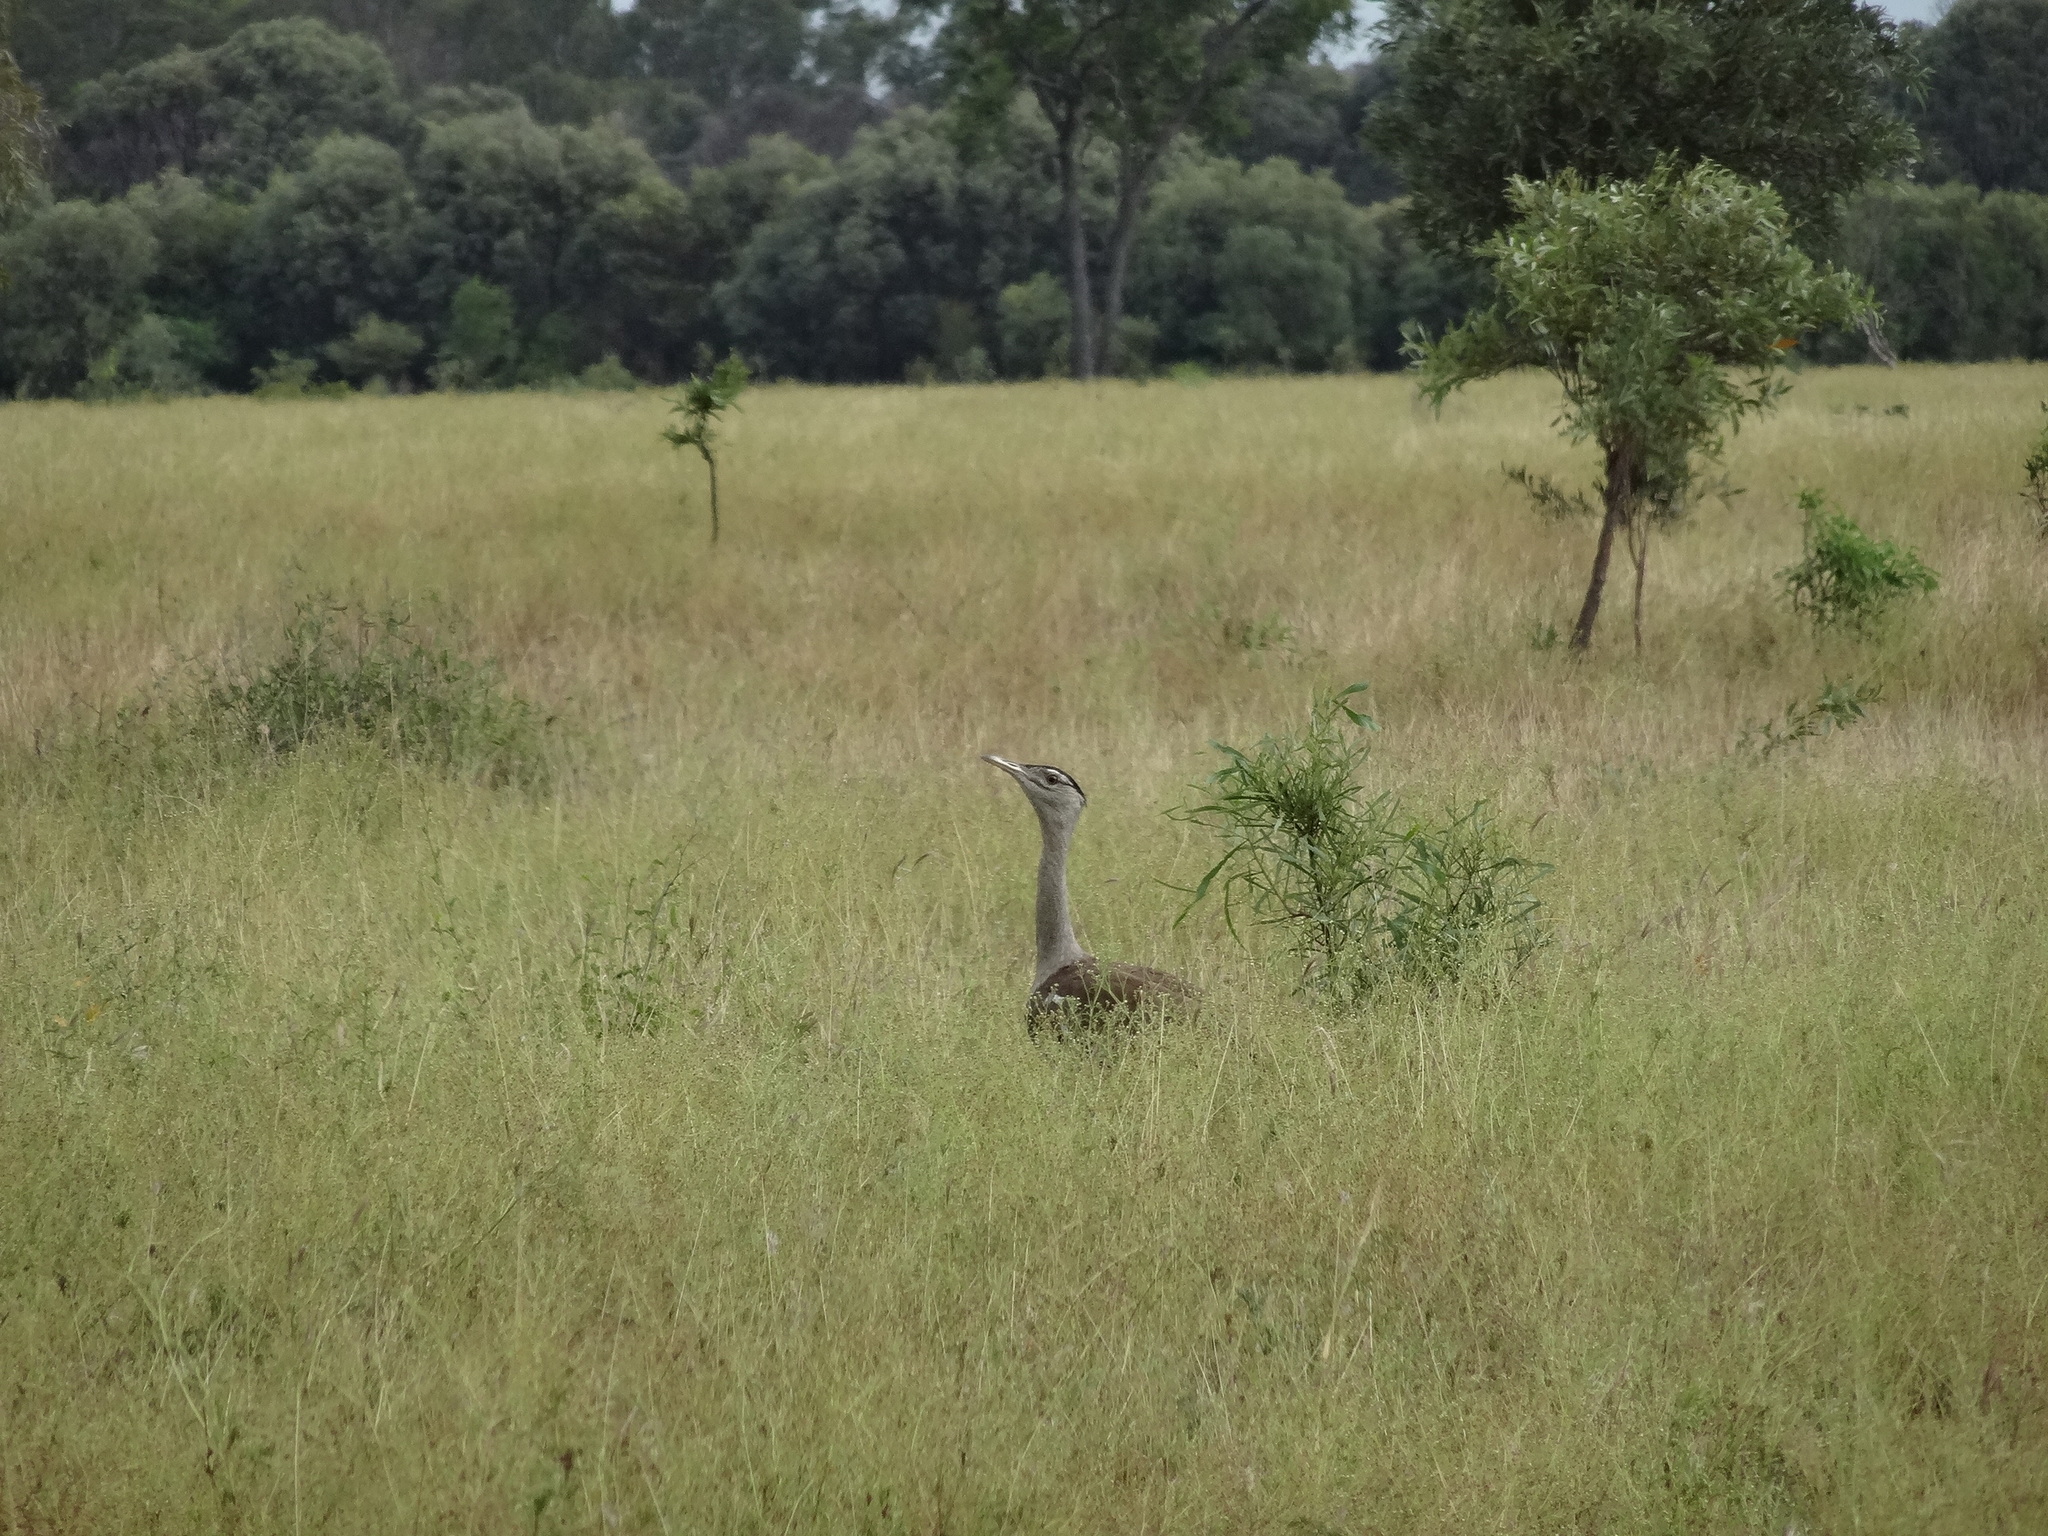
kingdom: Animalia
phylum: Chordata
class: Aves
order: Otidiformes
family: Otididae
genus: Ardeotis
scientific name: Ardeotis australis
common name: Australian bustard
